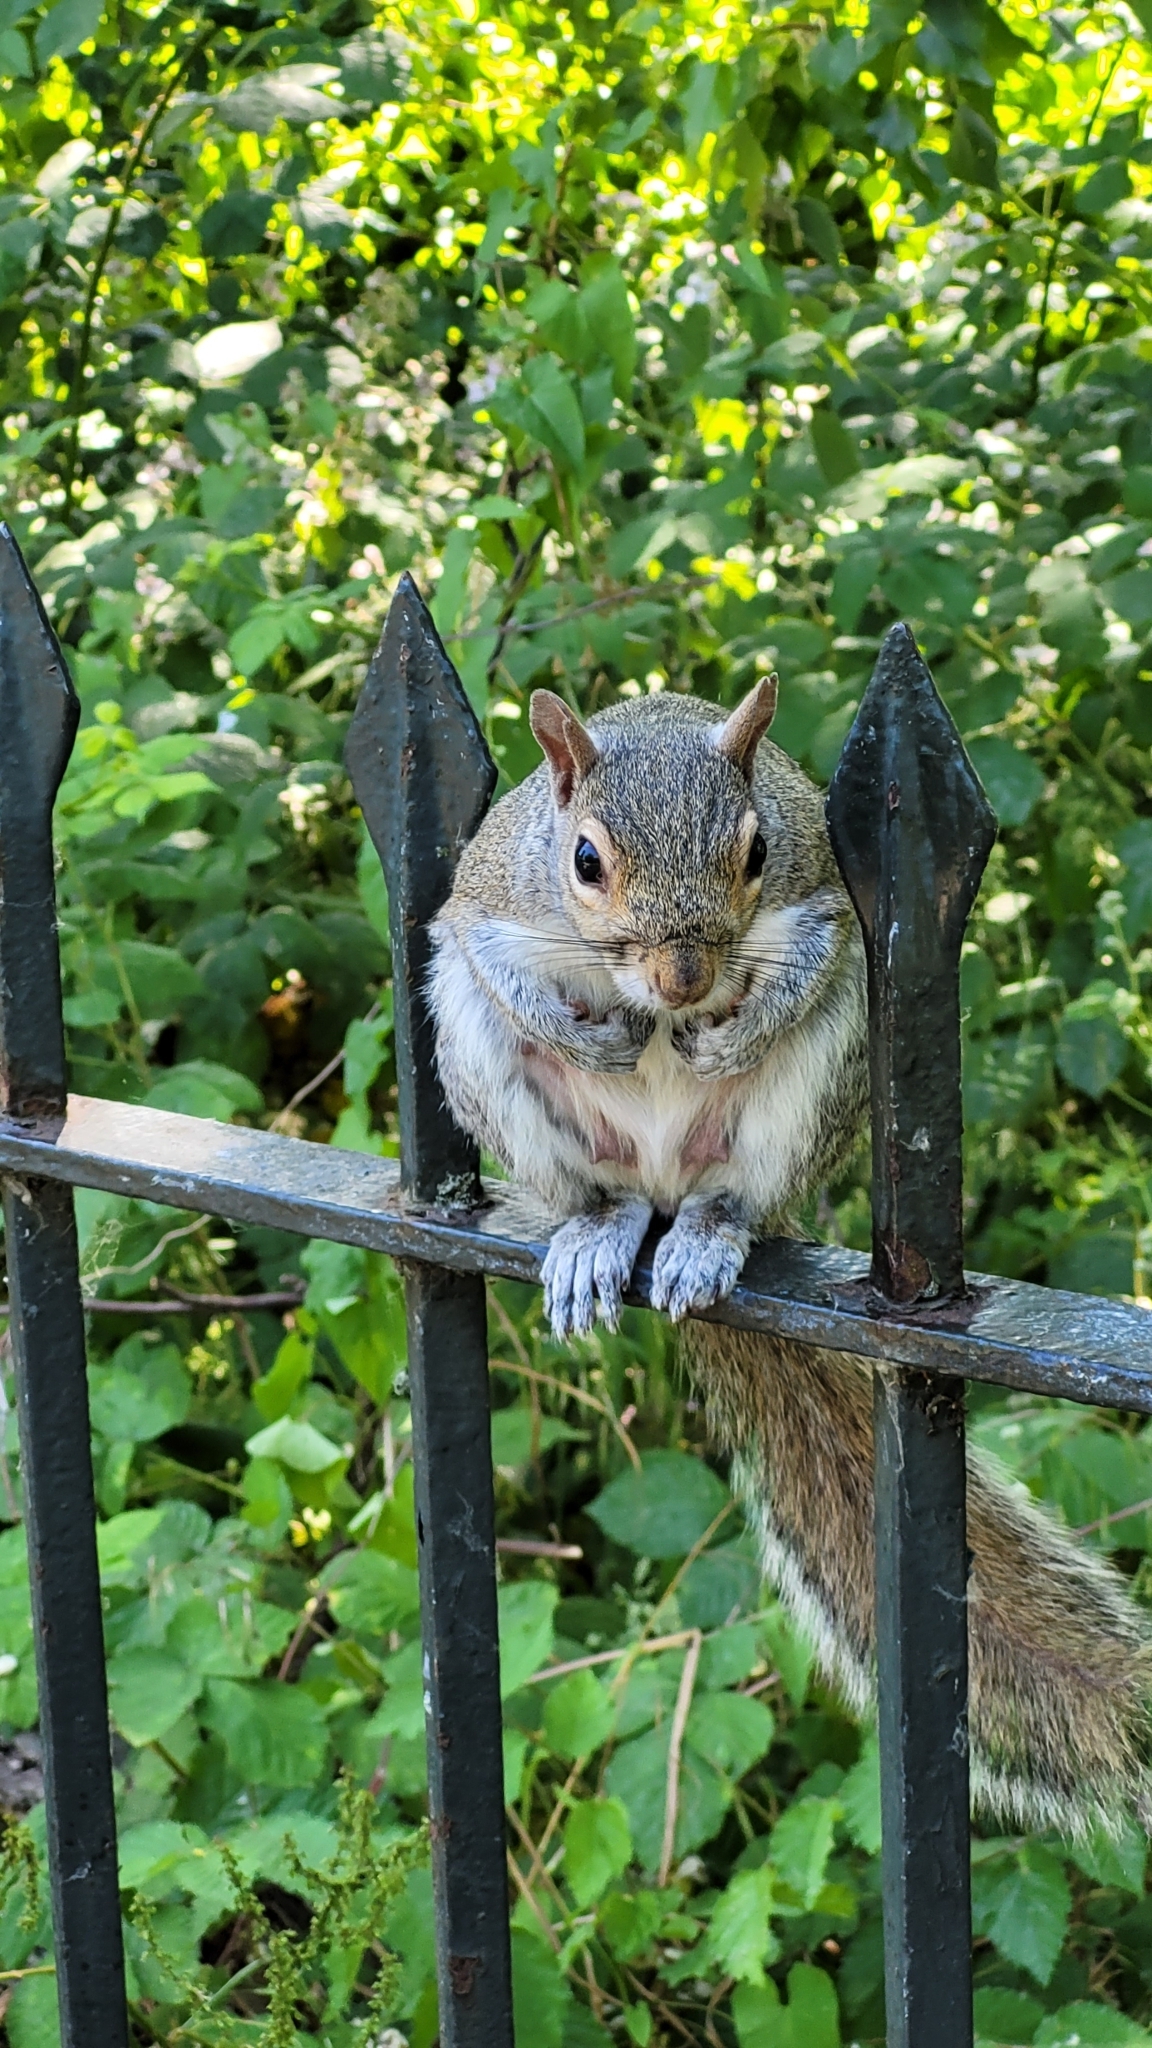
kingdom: Animalia
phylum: Chordata
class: Mammalia
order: Rodentia
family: Sciuridae
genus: Sciurus
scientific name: Sciurus carolinensis
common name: Eastern gray squirrel
